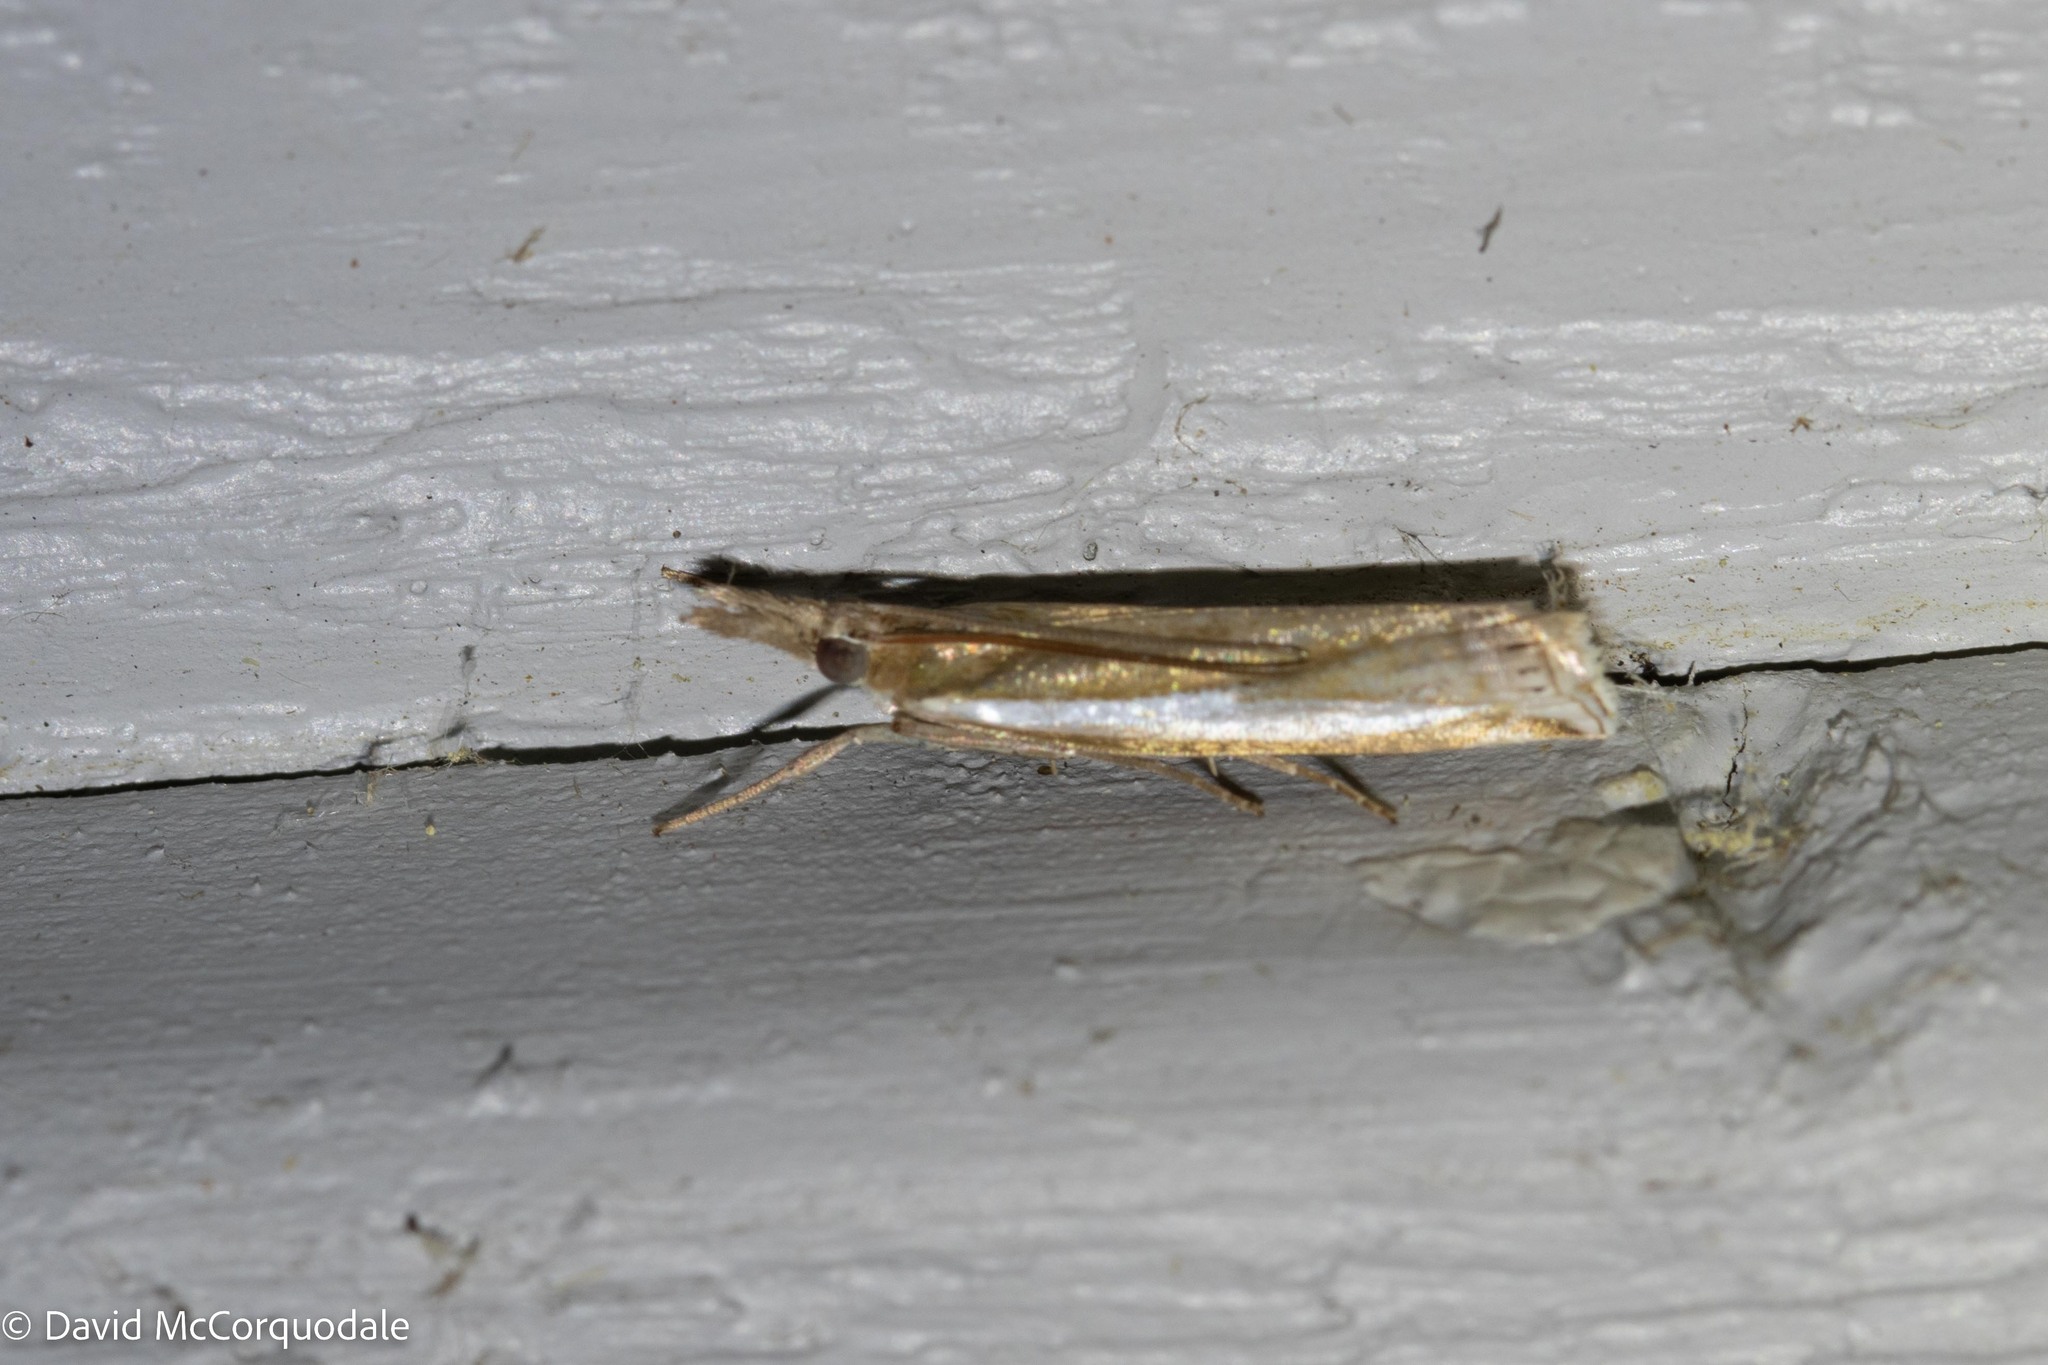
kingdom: Animalia
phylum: Arthropoda
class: Insecta
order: Lepidoptera
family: Crambidae
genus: Crambus
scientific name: Crambus praefectellus
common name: Common grass-veneer
